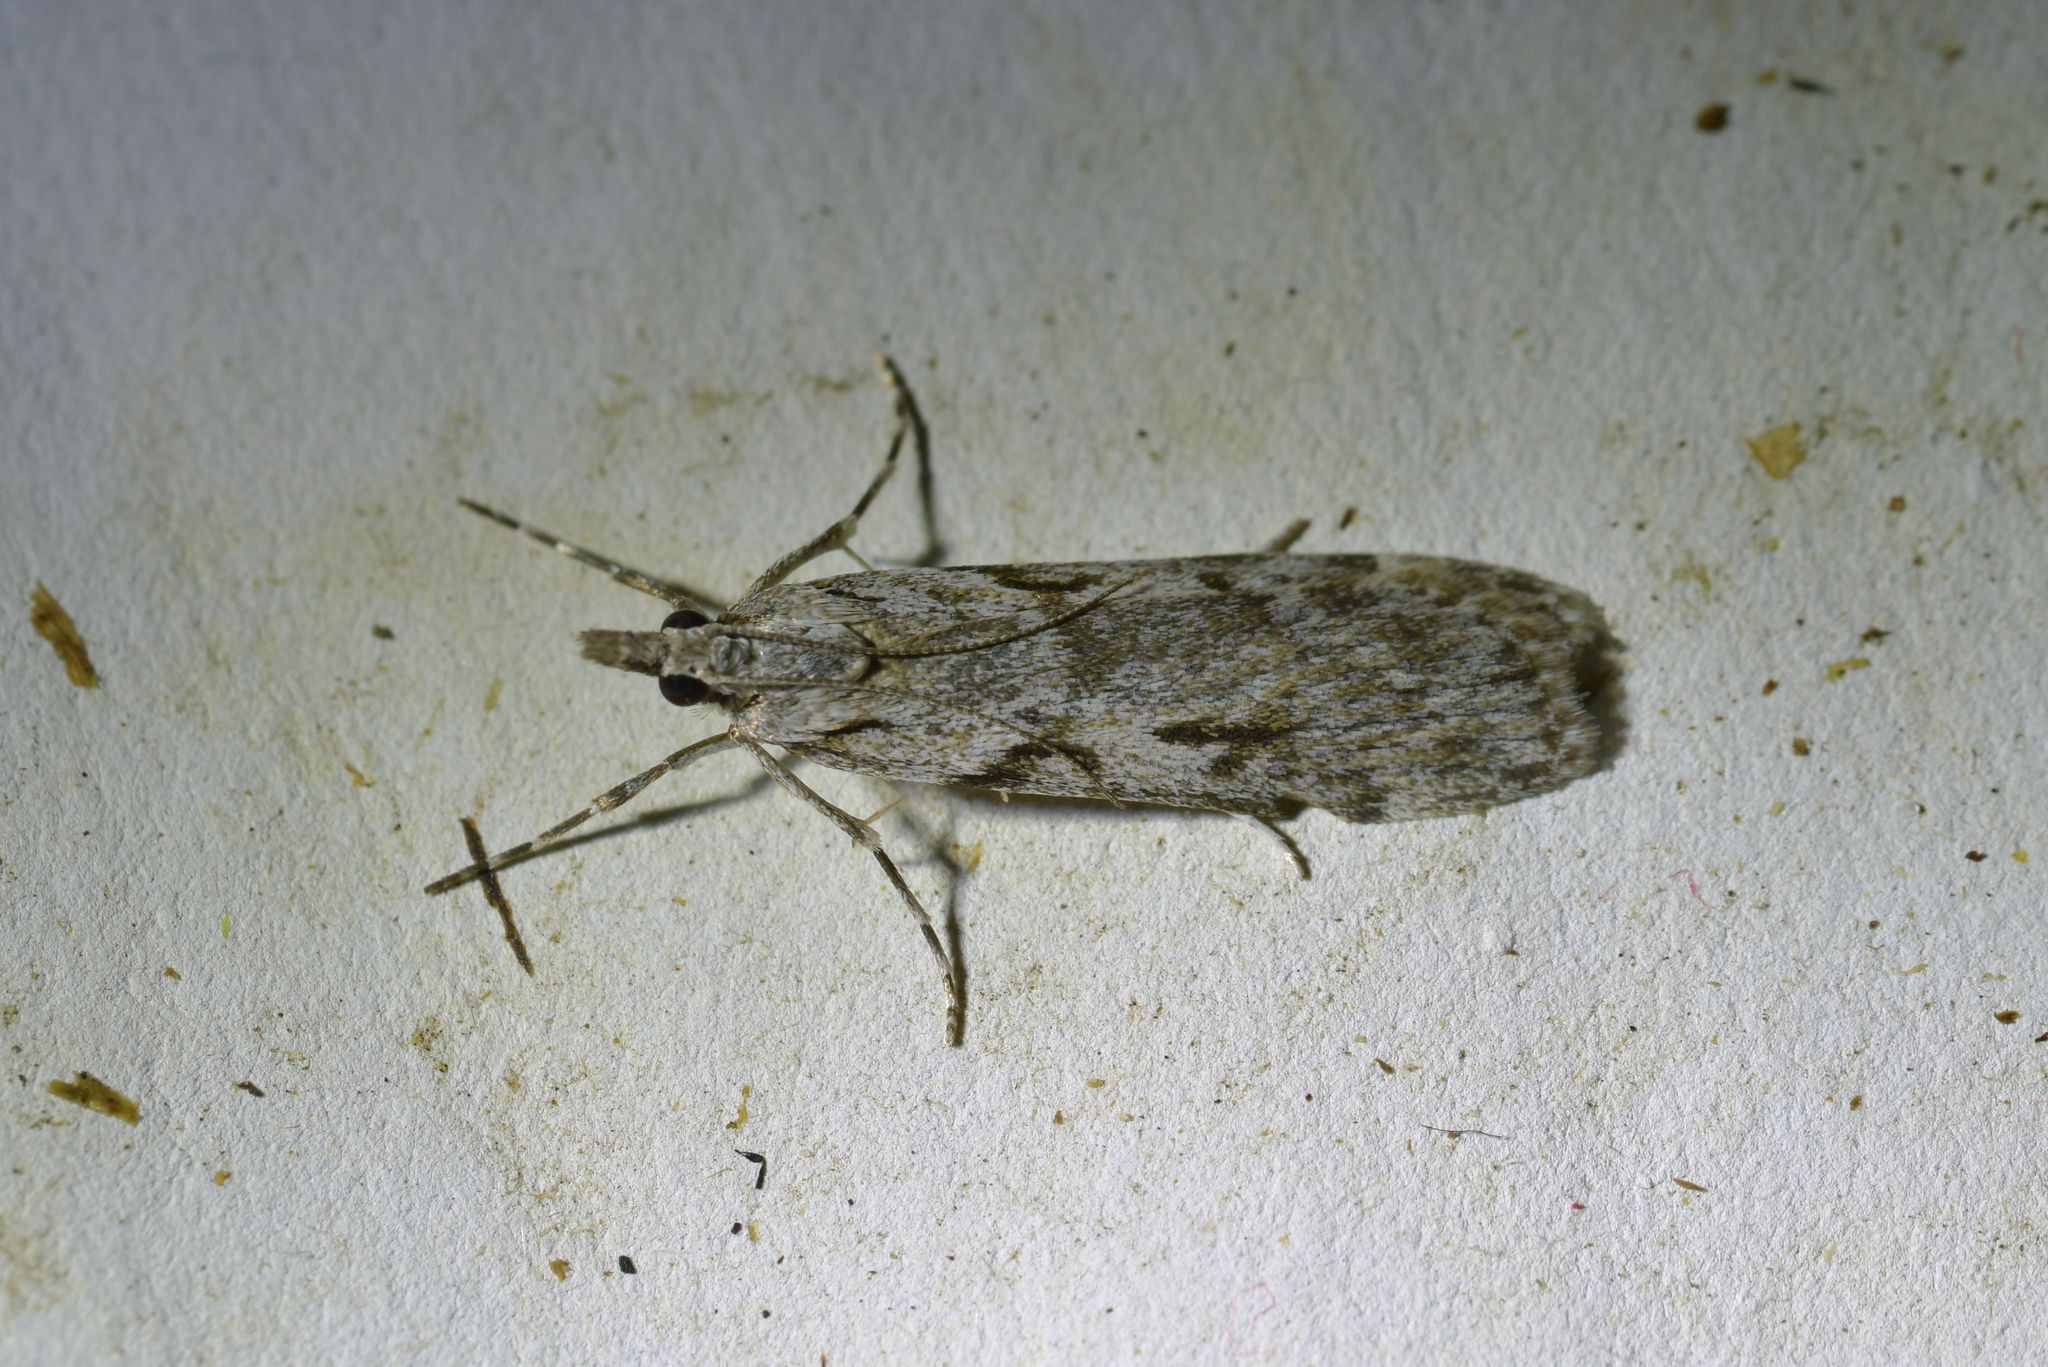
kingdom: Animalia
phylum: Arthropoda
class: Insecta
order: Lepidoptera
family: Crambidae
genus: Scoparia
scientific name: Scoparia halopis
